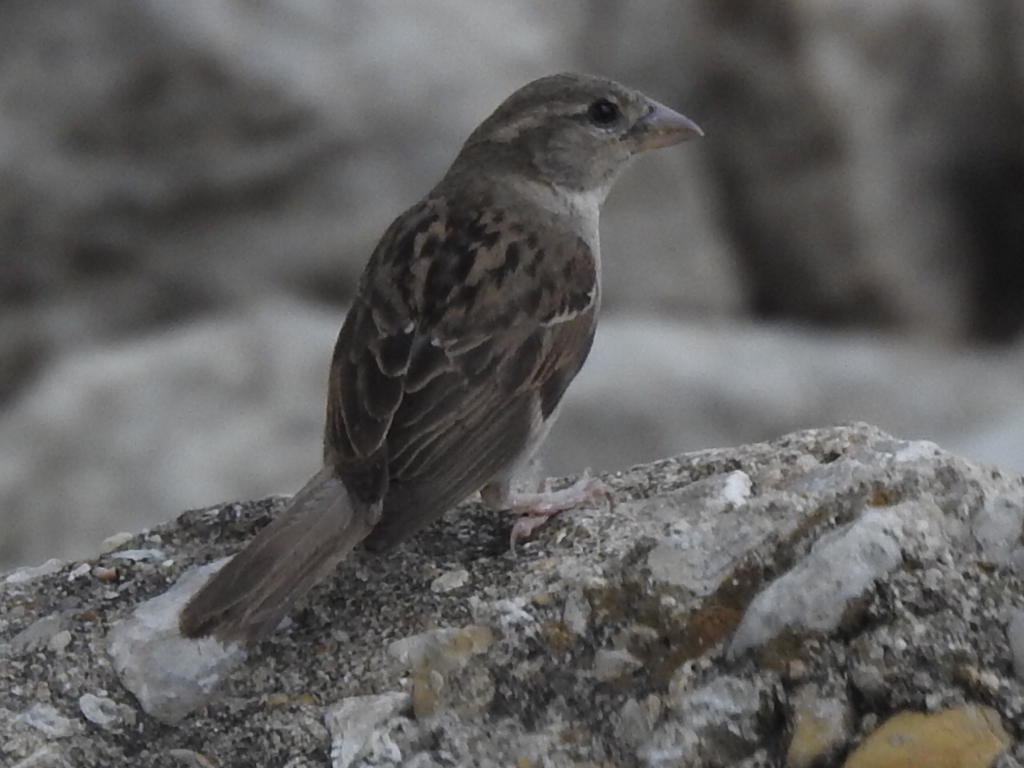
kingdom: Animalia
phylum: Chordata
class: Aves
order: Passeriformes
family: Passeridae
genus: Passer
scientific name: Passer domesticus
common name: House sparrow
